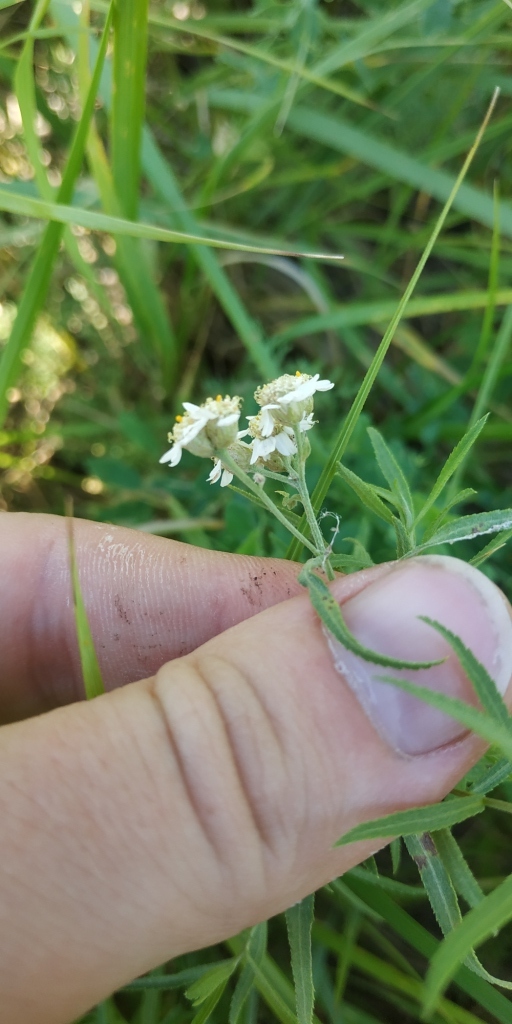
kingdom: Plantae
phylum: Tracheophyta
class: Magnoliopsida
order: Asterales
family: Asteraceae
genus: Achillea
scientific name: Achillea salicifolia
